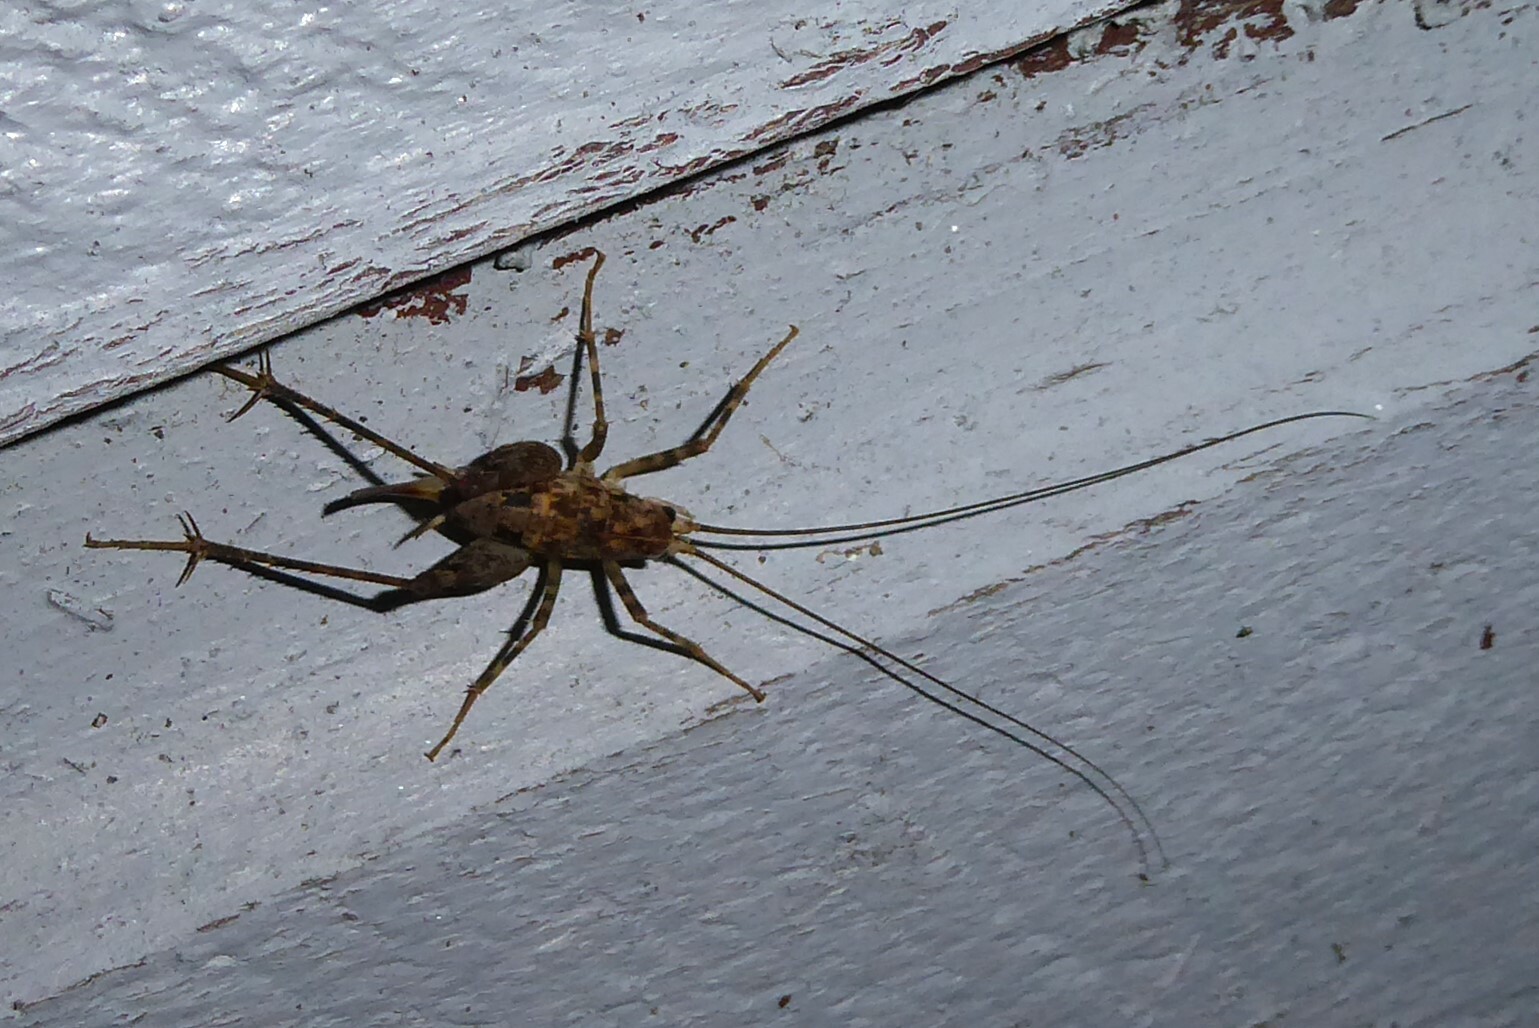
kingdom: Animalia
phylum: Arthropoda
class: Insecta
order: Orthoptera
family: Rhaphidophoridae
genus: Pleioplectron
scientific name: Pleioplectron simplex
